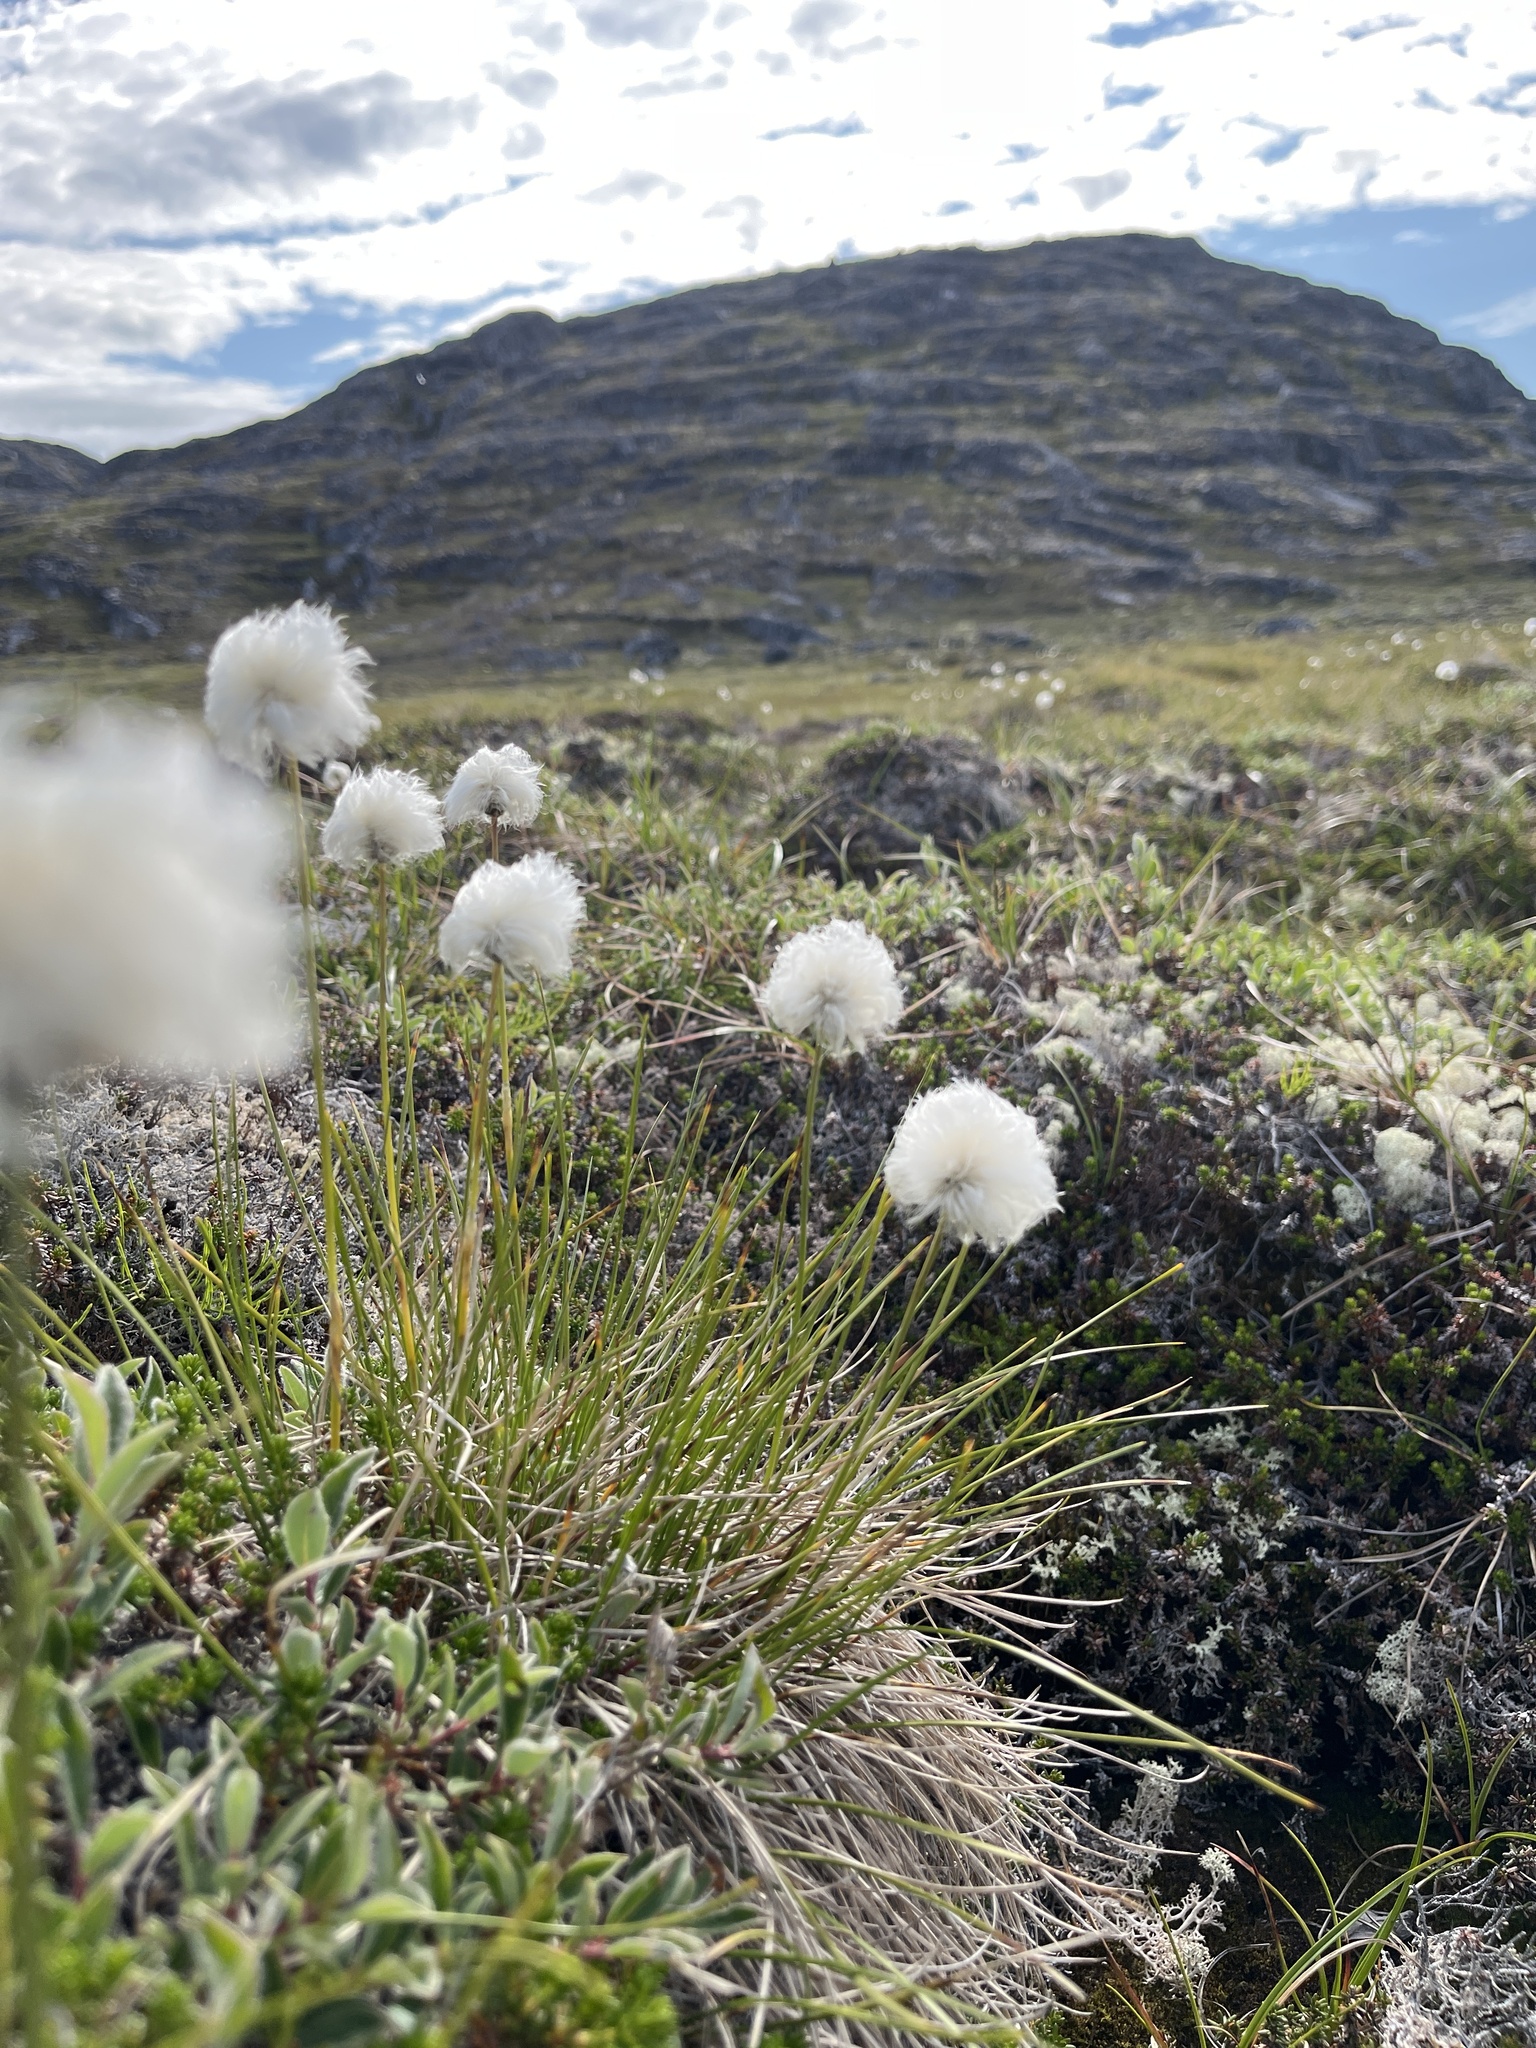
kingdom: Plantae
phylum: Tracheophyta
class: Liliopsida
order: Poales
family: Cyperaceae
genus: Eriophorum
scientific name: Eriophorum vaginatum
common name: Hare's-tail cottongrass
